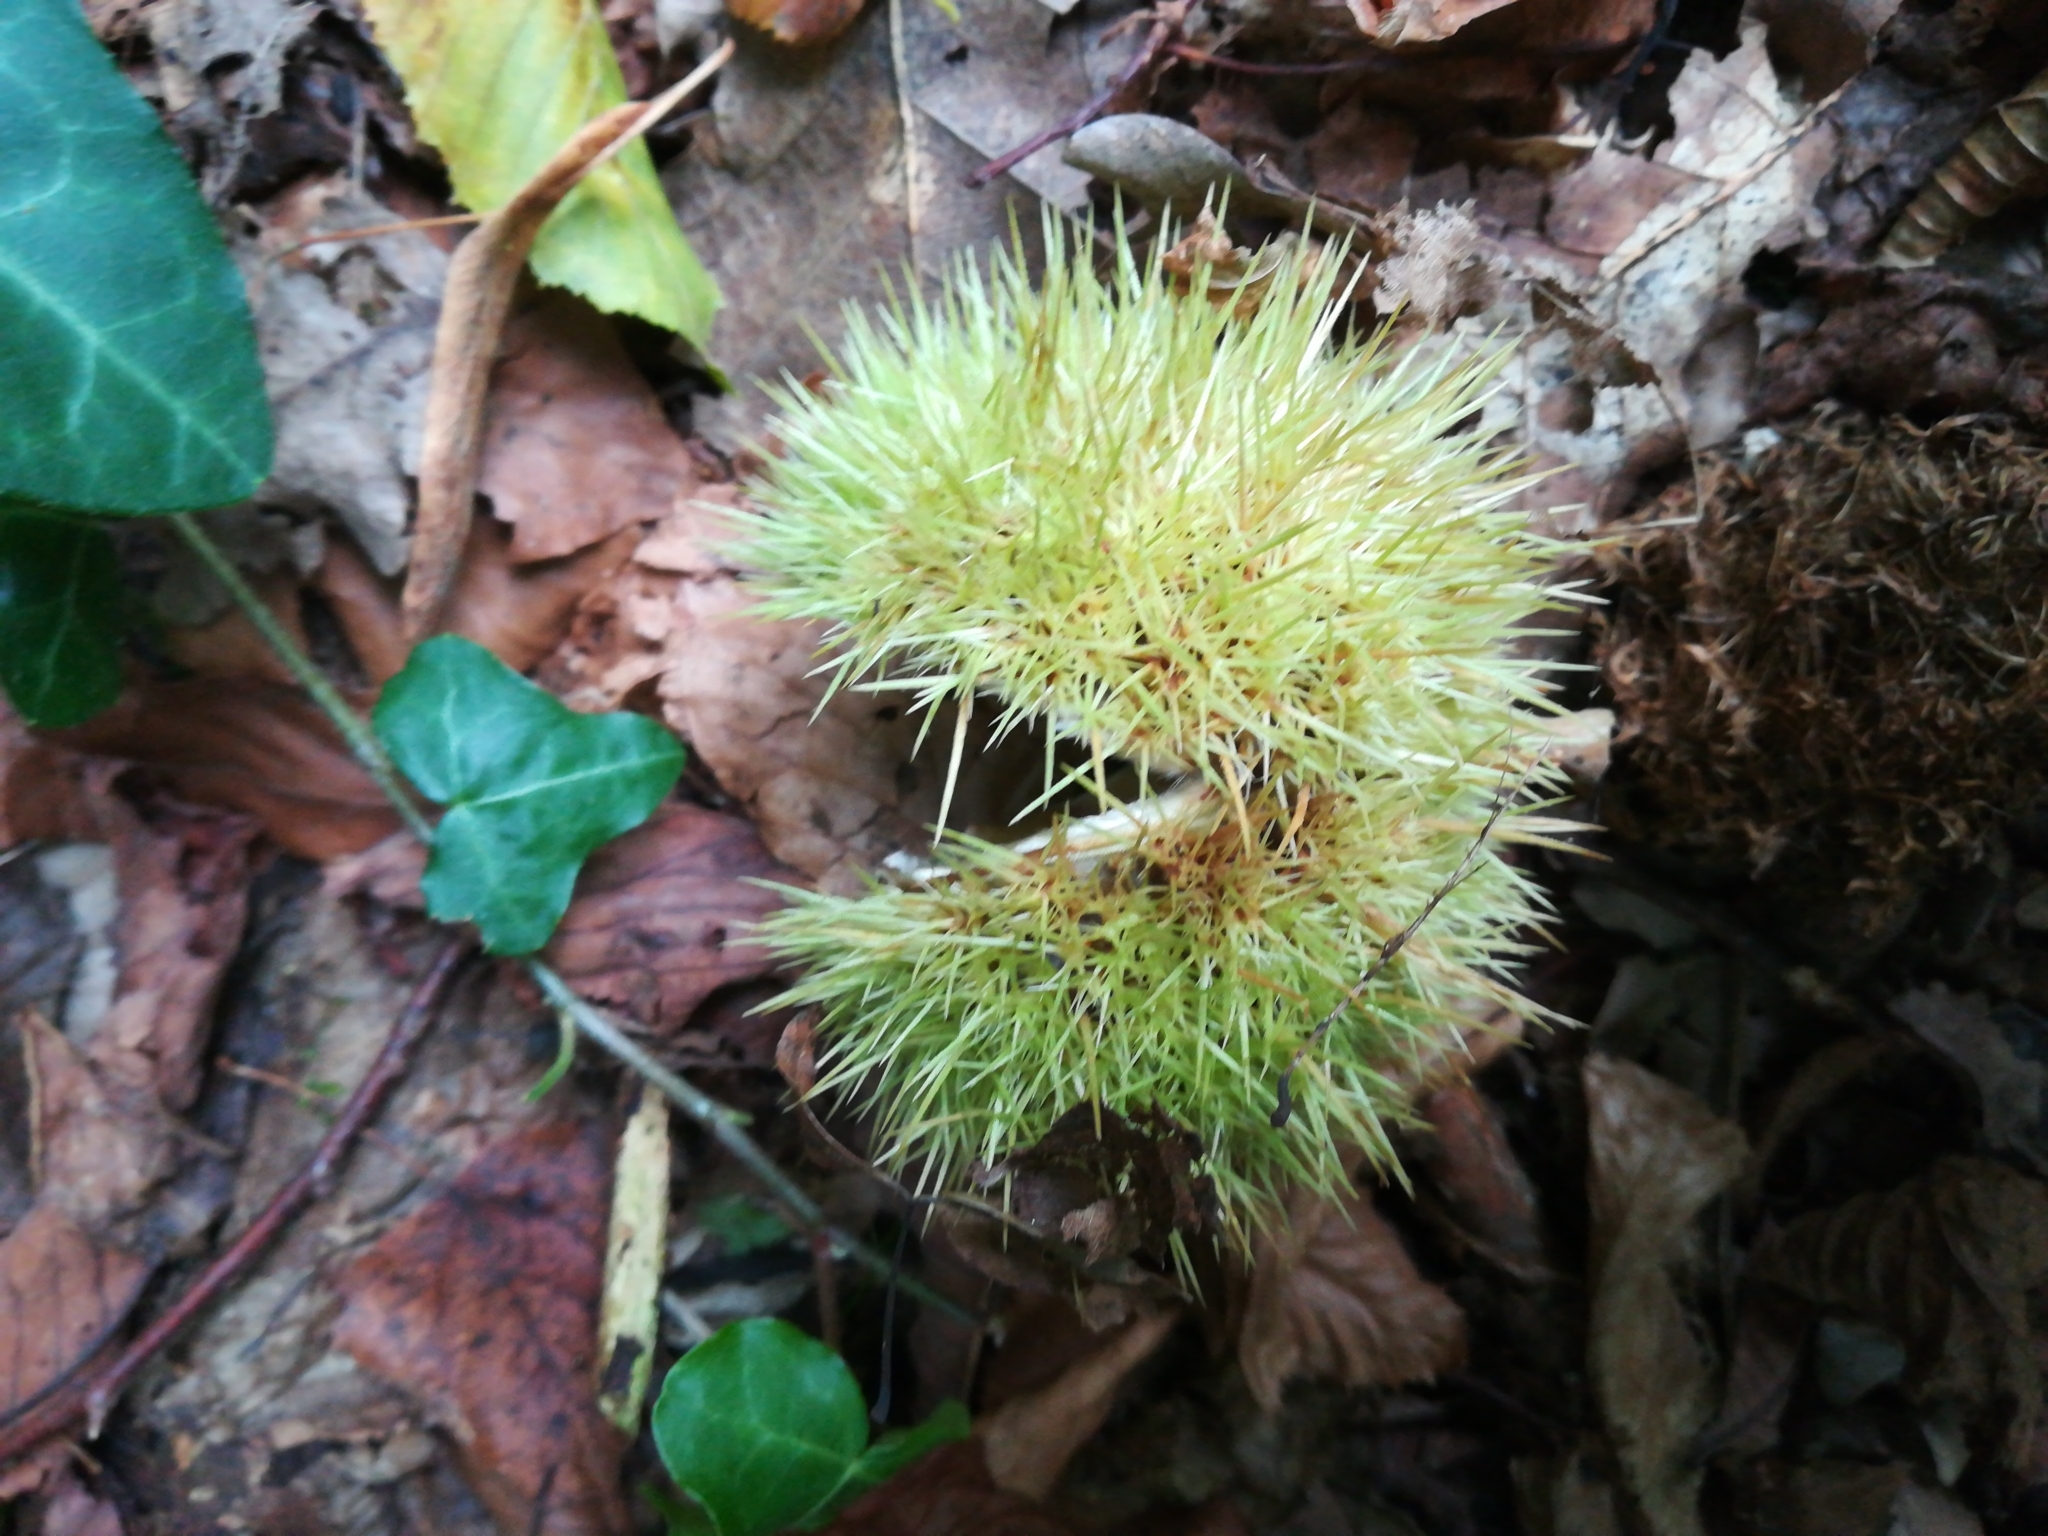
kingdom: Plantae
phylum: Tracheophyta
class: Magnoliopsida
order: Fagales
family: Fagaceae
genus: Castanea
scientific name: Castanea sativa
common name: Sweet chestnut
